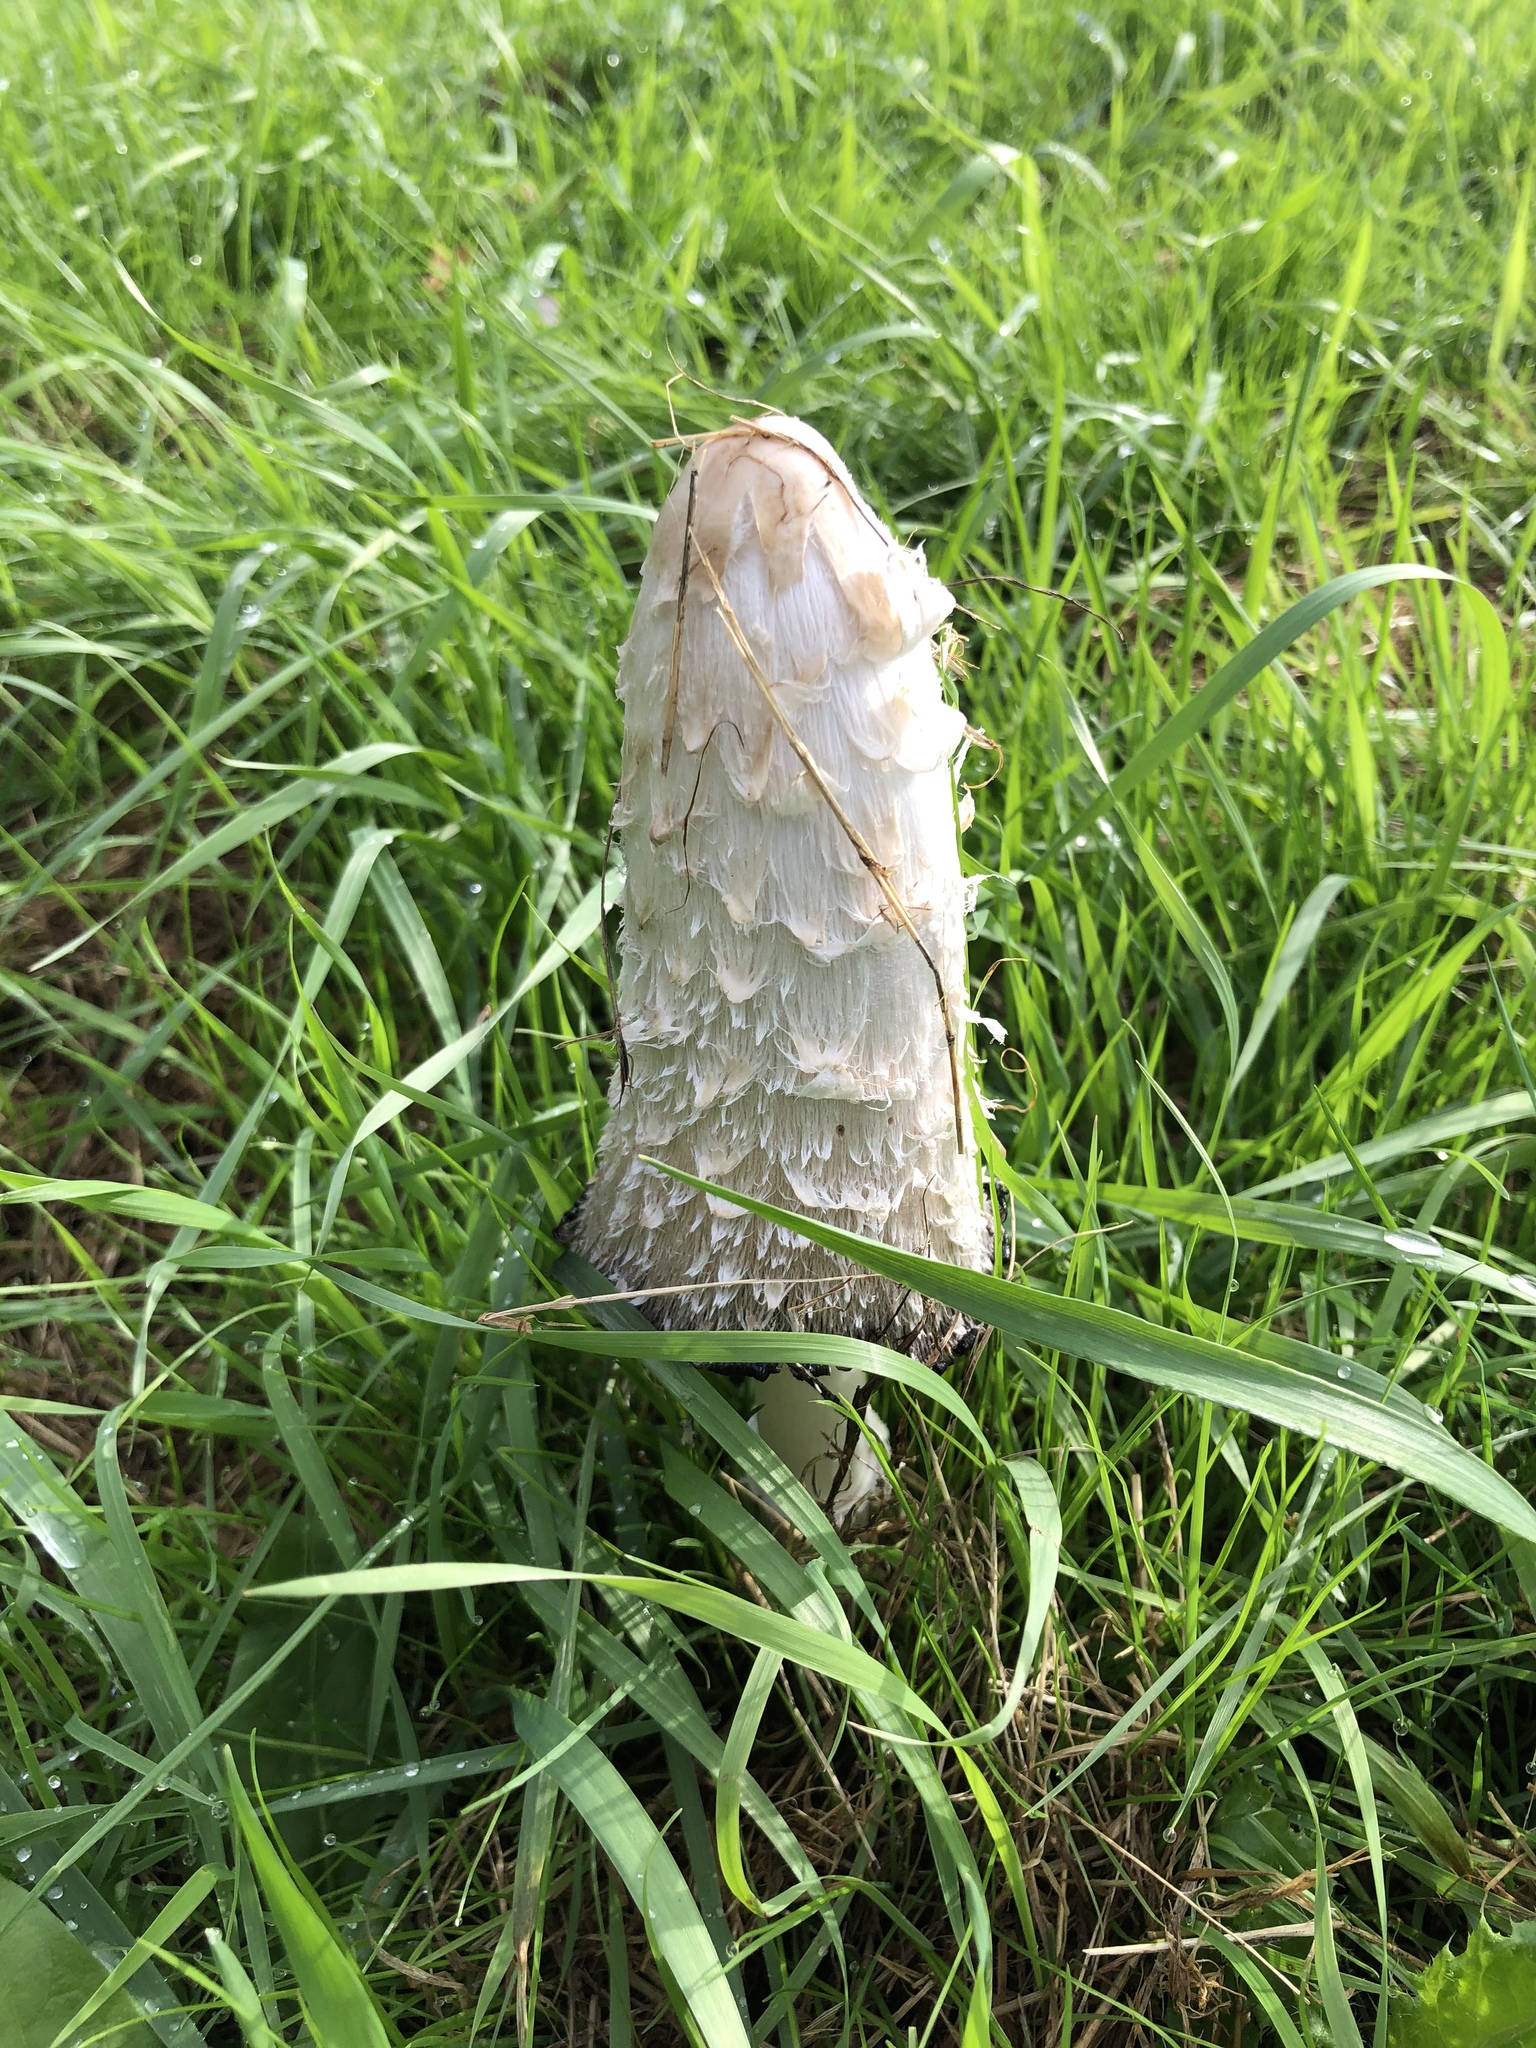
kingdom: Fungi
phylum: Basidiomycota
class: Agaricomycetes
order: Agaricales
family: Agaricaceae
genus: Coprinus
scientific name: Coprinus comatus
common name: Lawyer's wig
